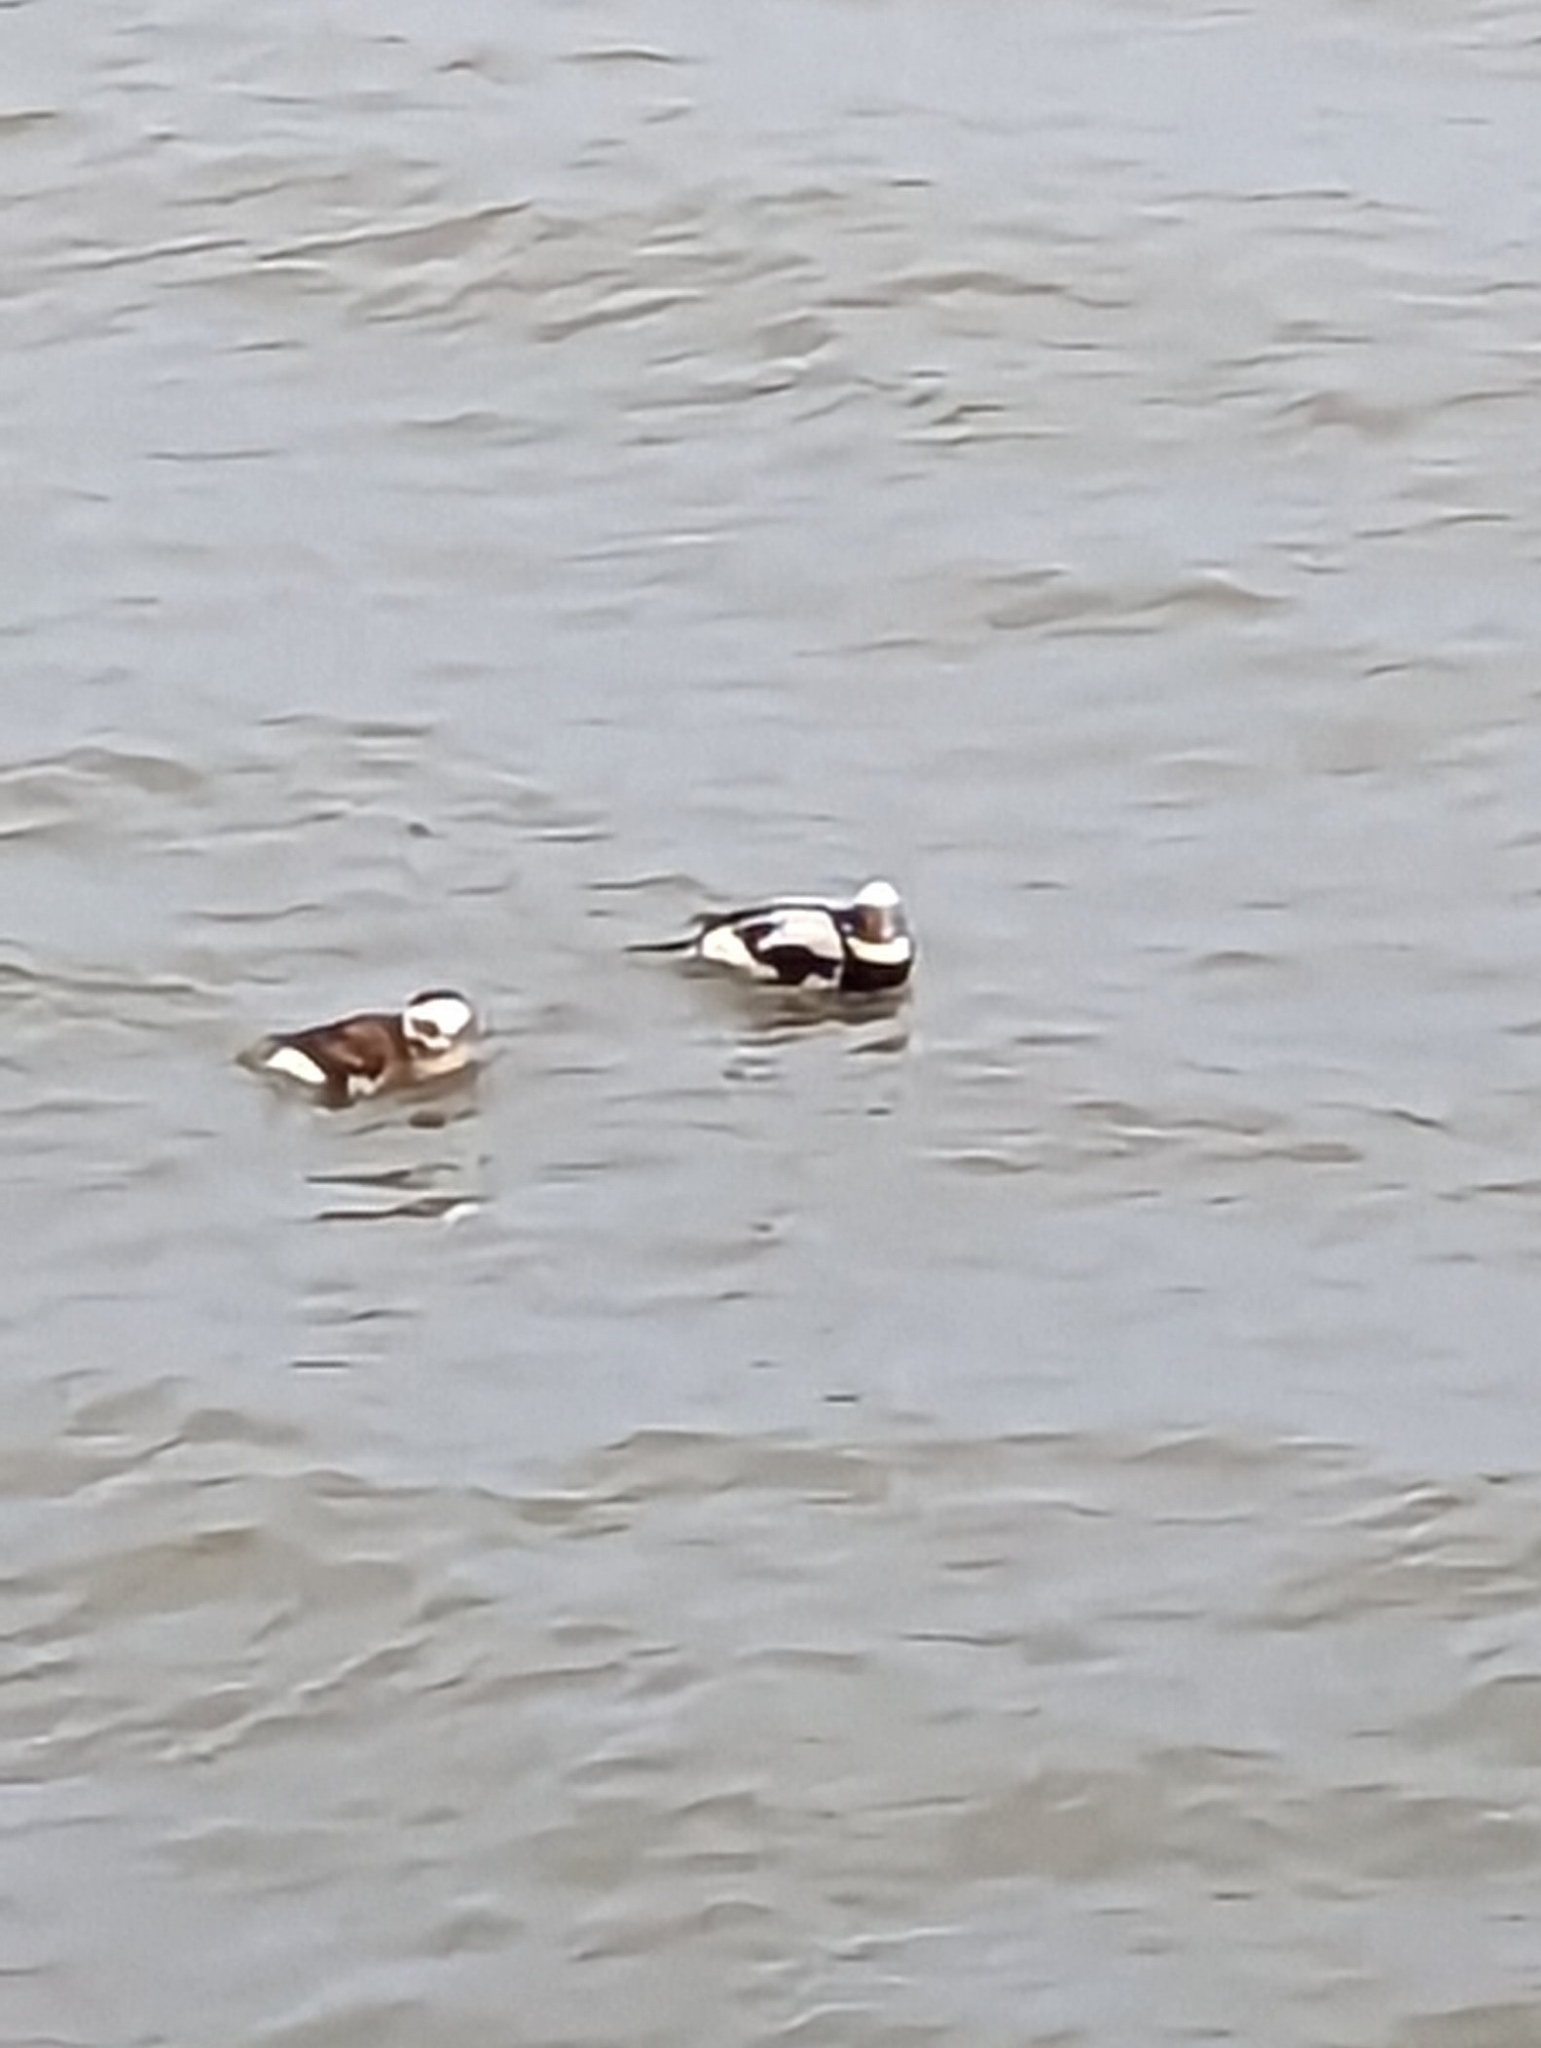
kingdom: Animalia
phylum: Chordata
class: Aves
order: Anseriformes
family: Anatidae
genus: Clangula
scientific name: Clangula hyemalis
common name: Long-tailed duck
